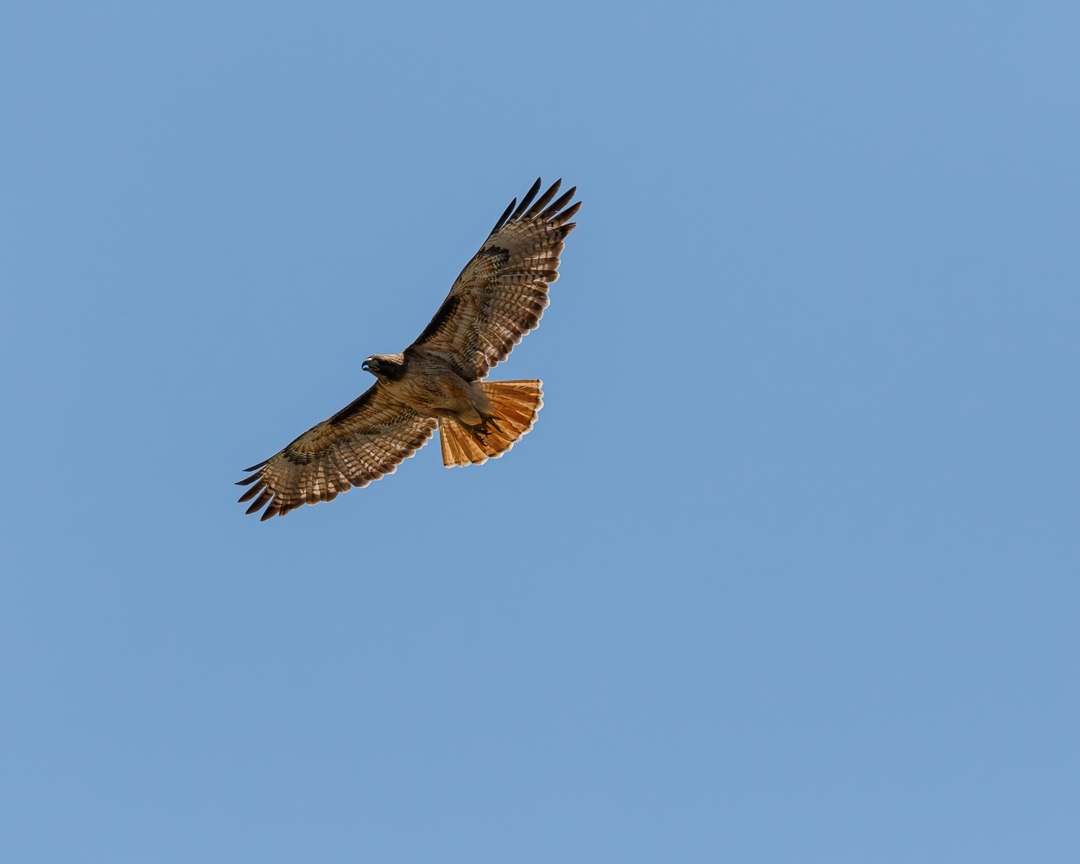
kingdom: Animalia
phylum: Chordata
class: Aves
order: Accipitriformes
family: Accipitridae
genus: Buteo
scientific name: Buteo jamaicensis
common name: Red-tailed hawk
